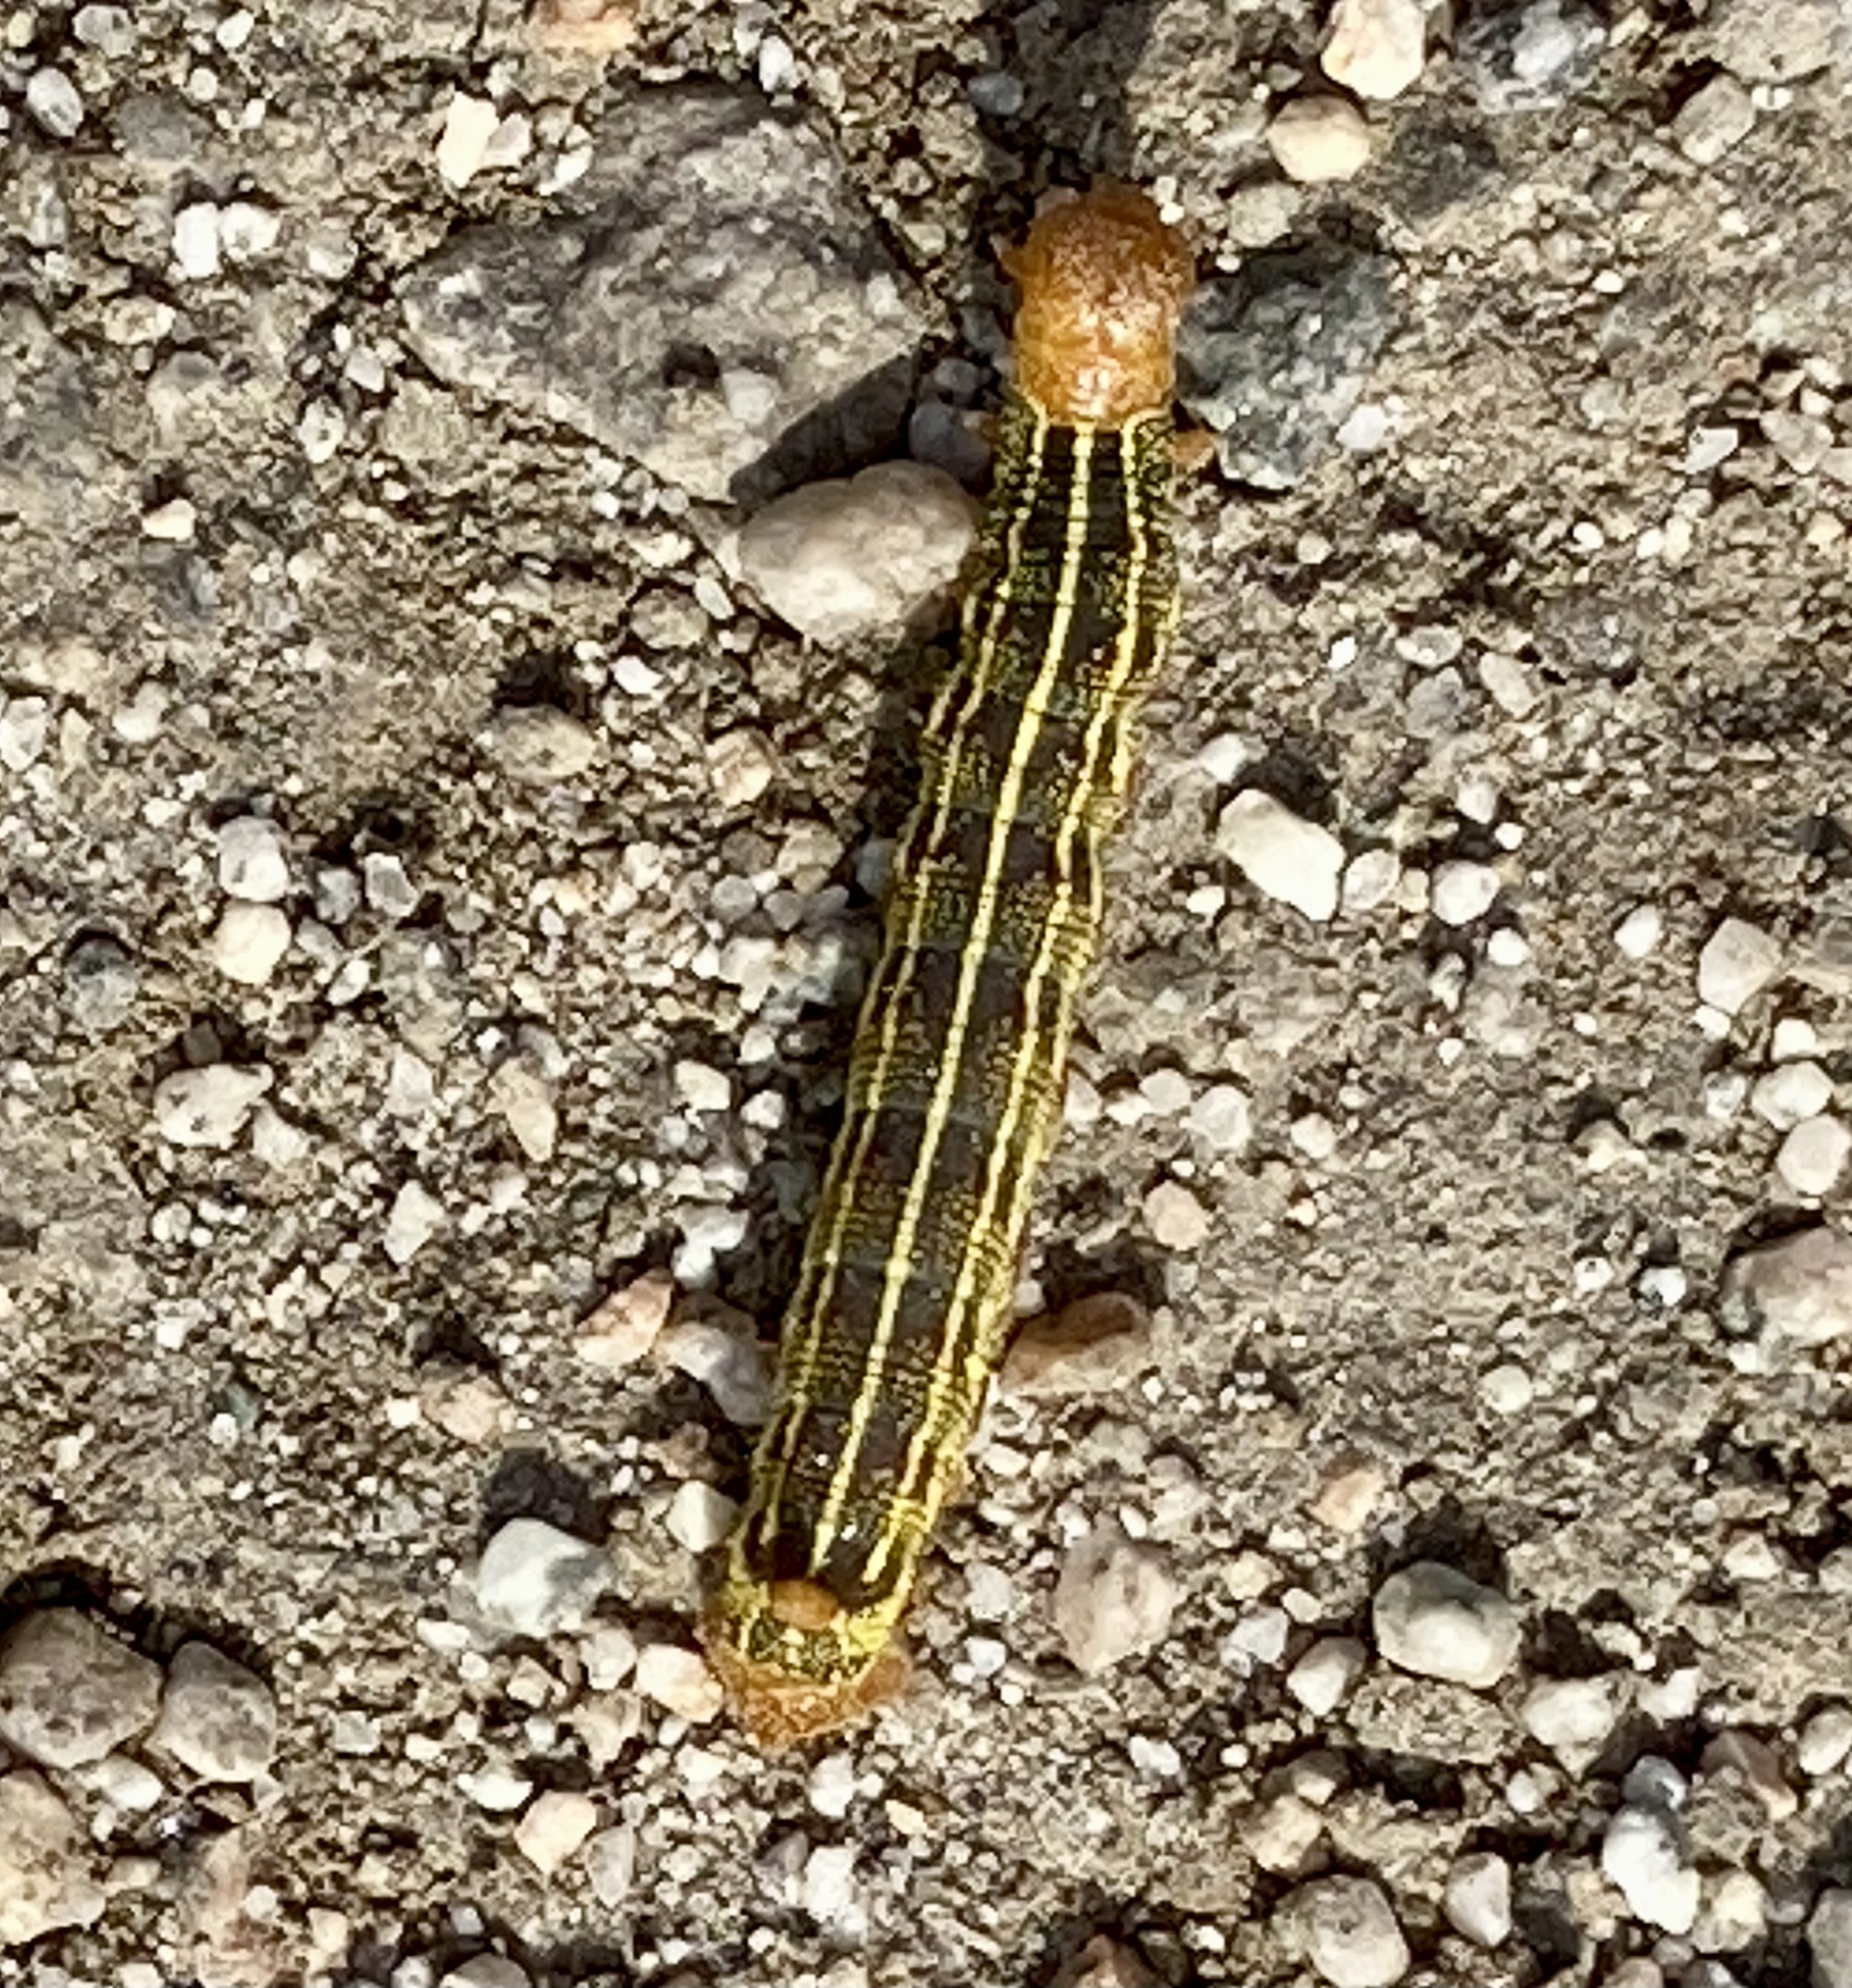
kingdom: Animalia
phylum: Arthropoda
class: Insecta
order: Lepidoptera
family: Sphingidae
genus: Hyles
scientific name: Hyles lineata
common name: White-lined sphinx
